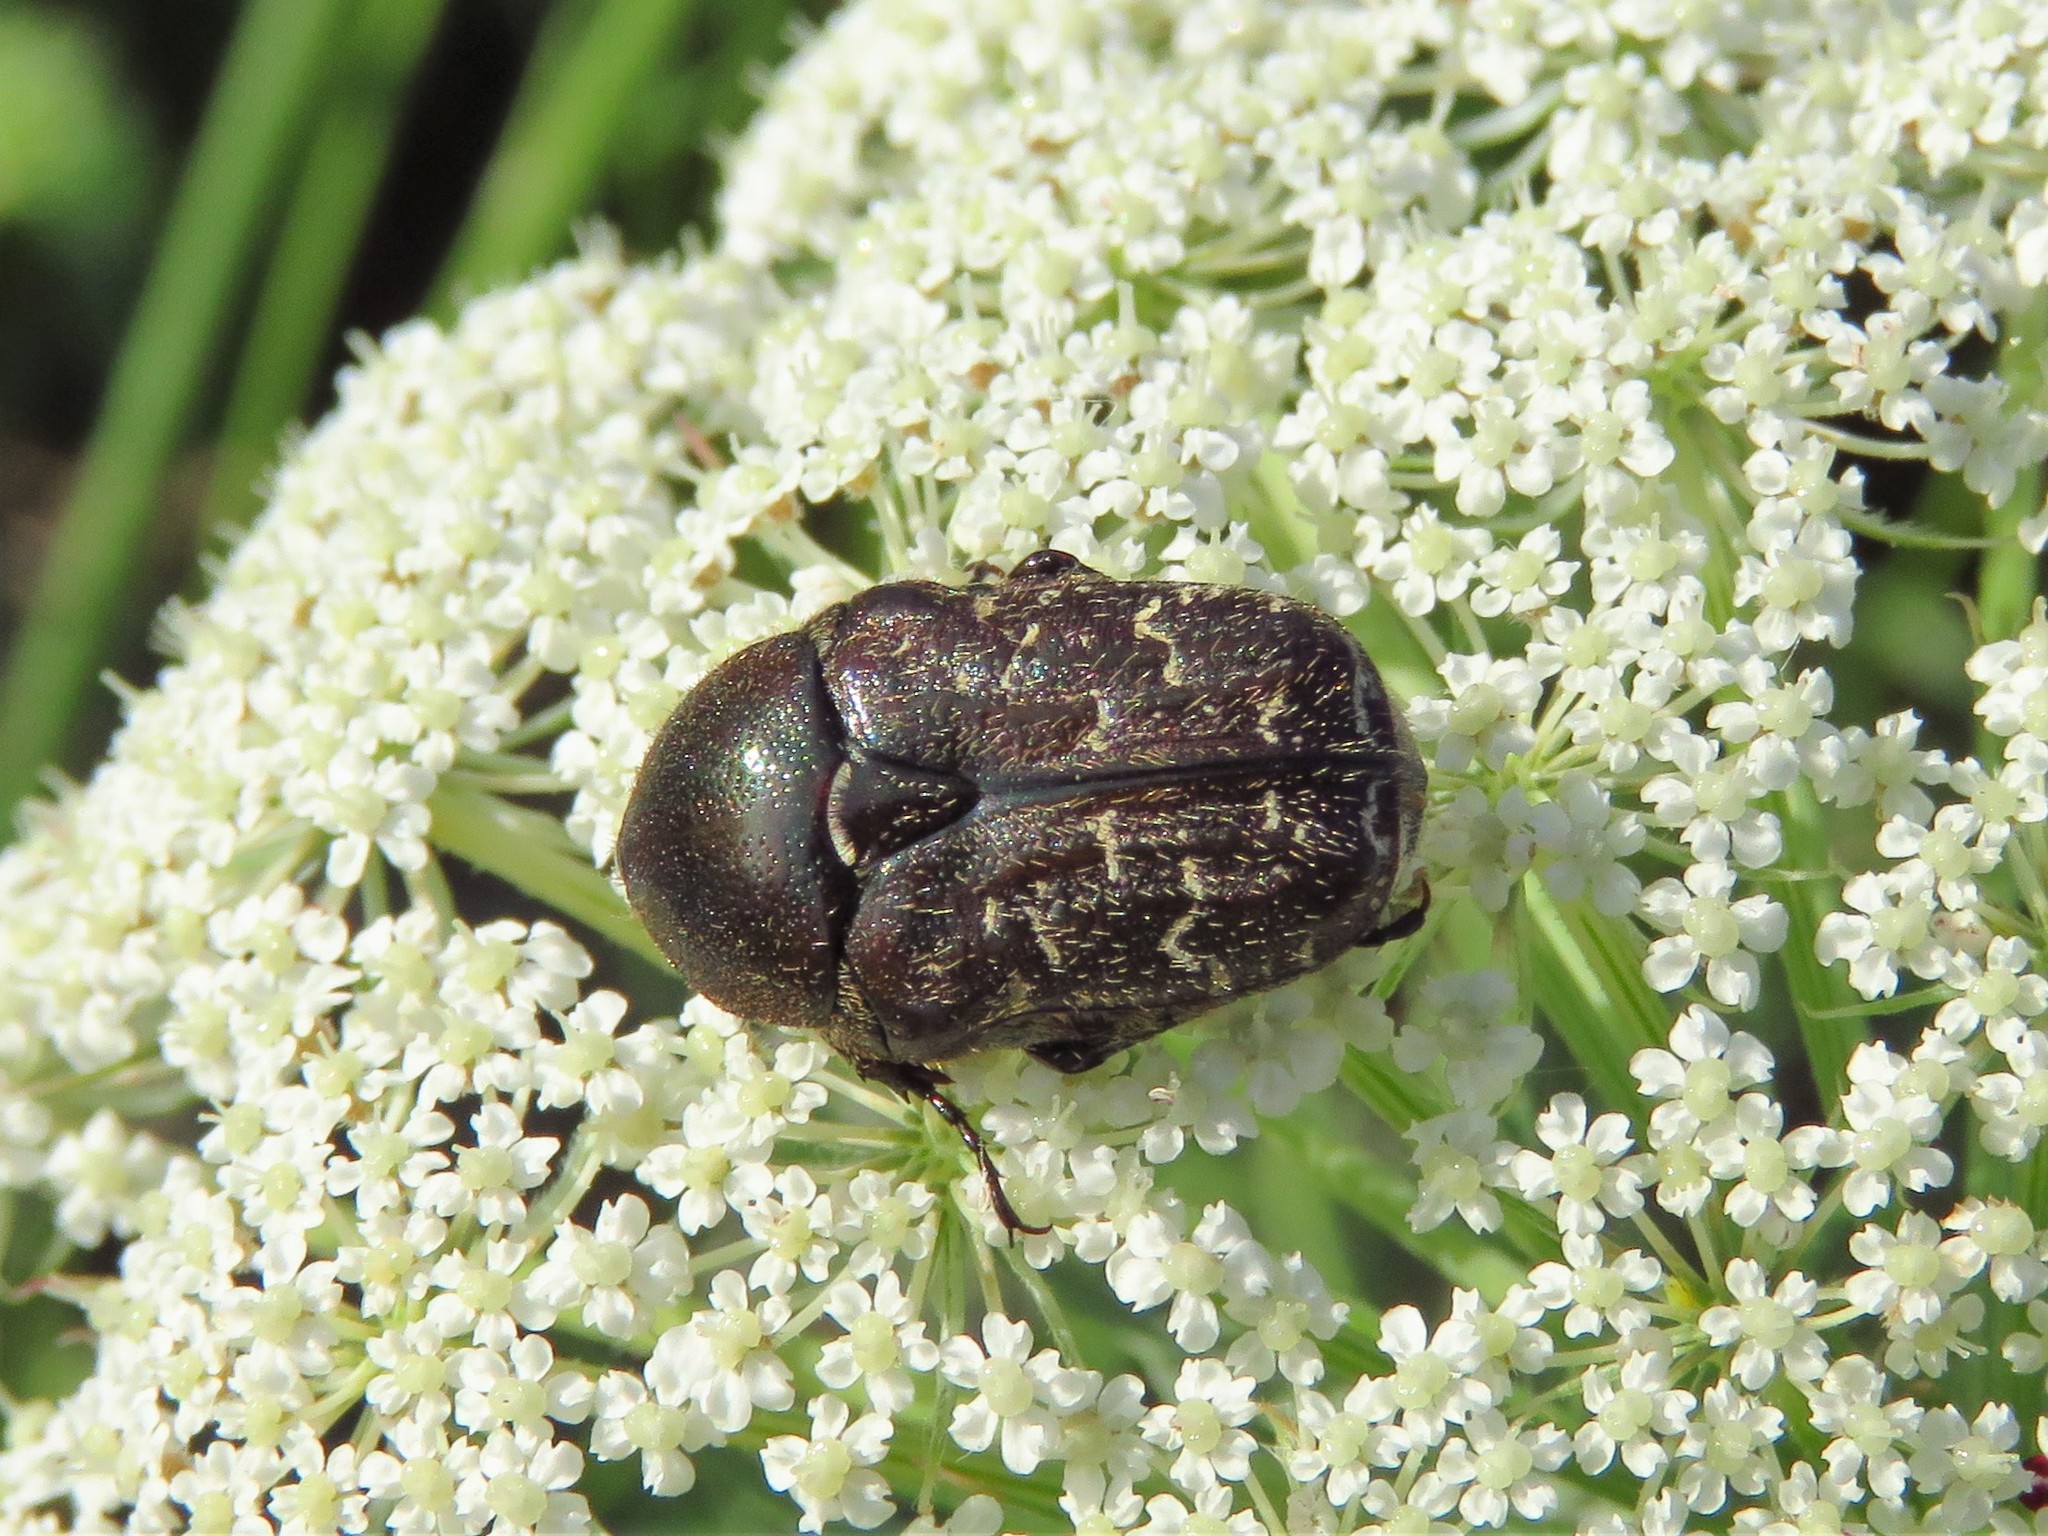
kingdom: Animalia
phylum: Arthropoda
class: Insecta
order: Coleoptera
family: Scarabaeidae
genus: Euphoria
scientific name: Euphoria sepulcralis
